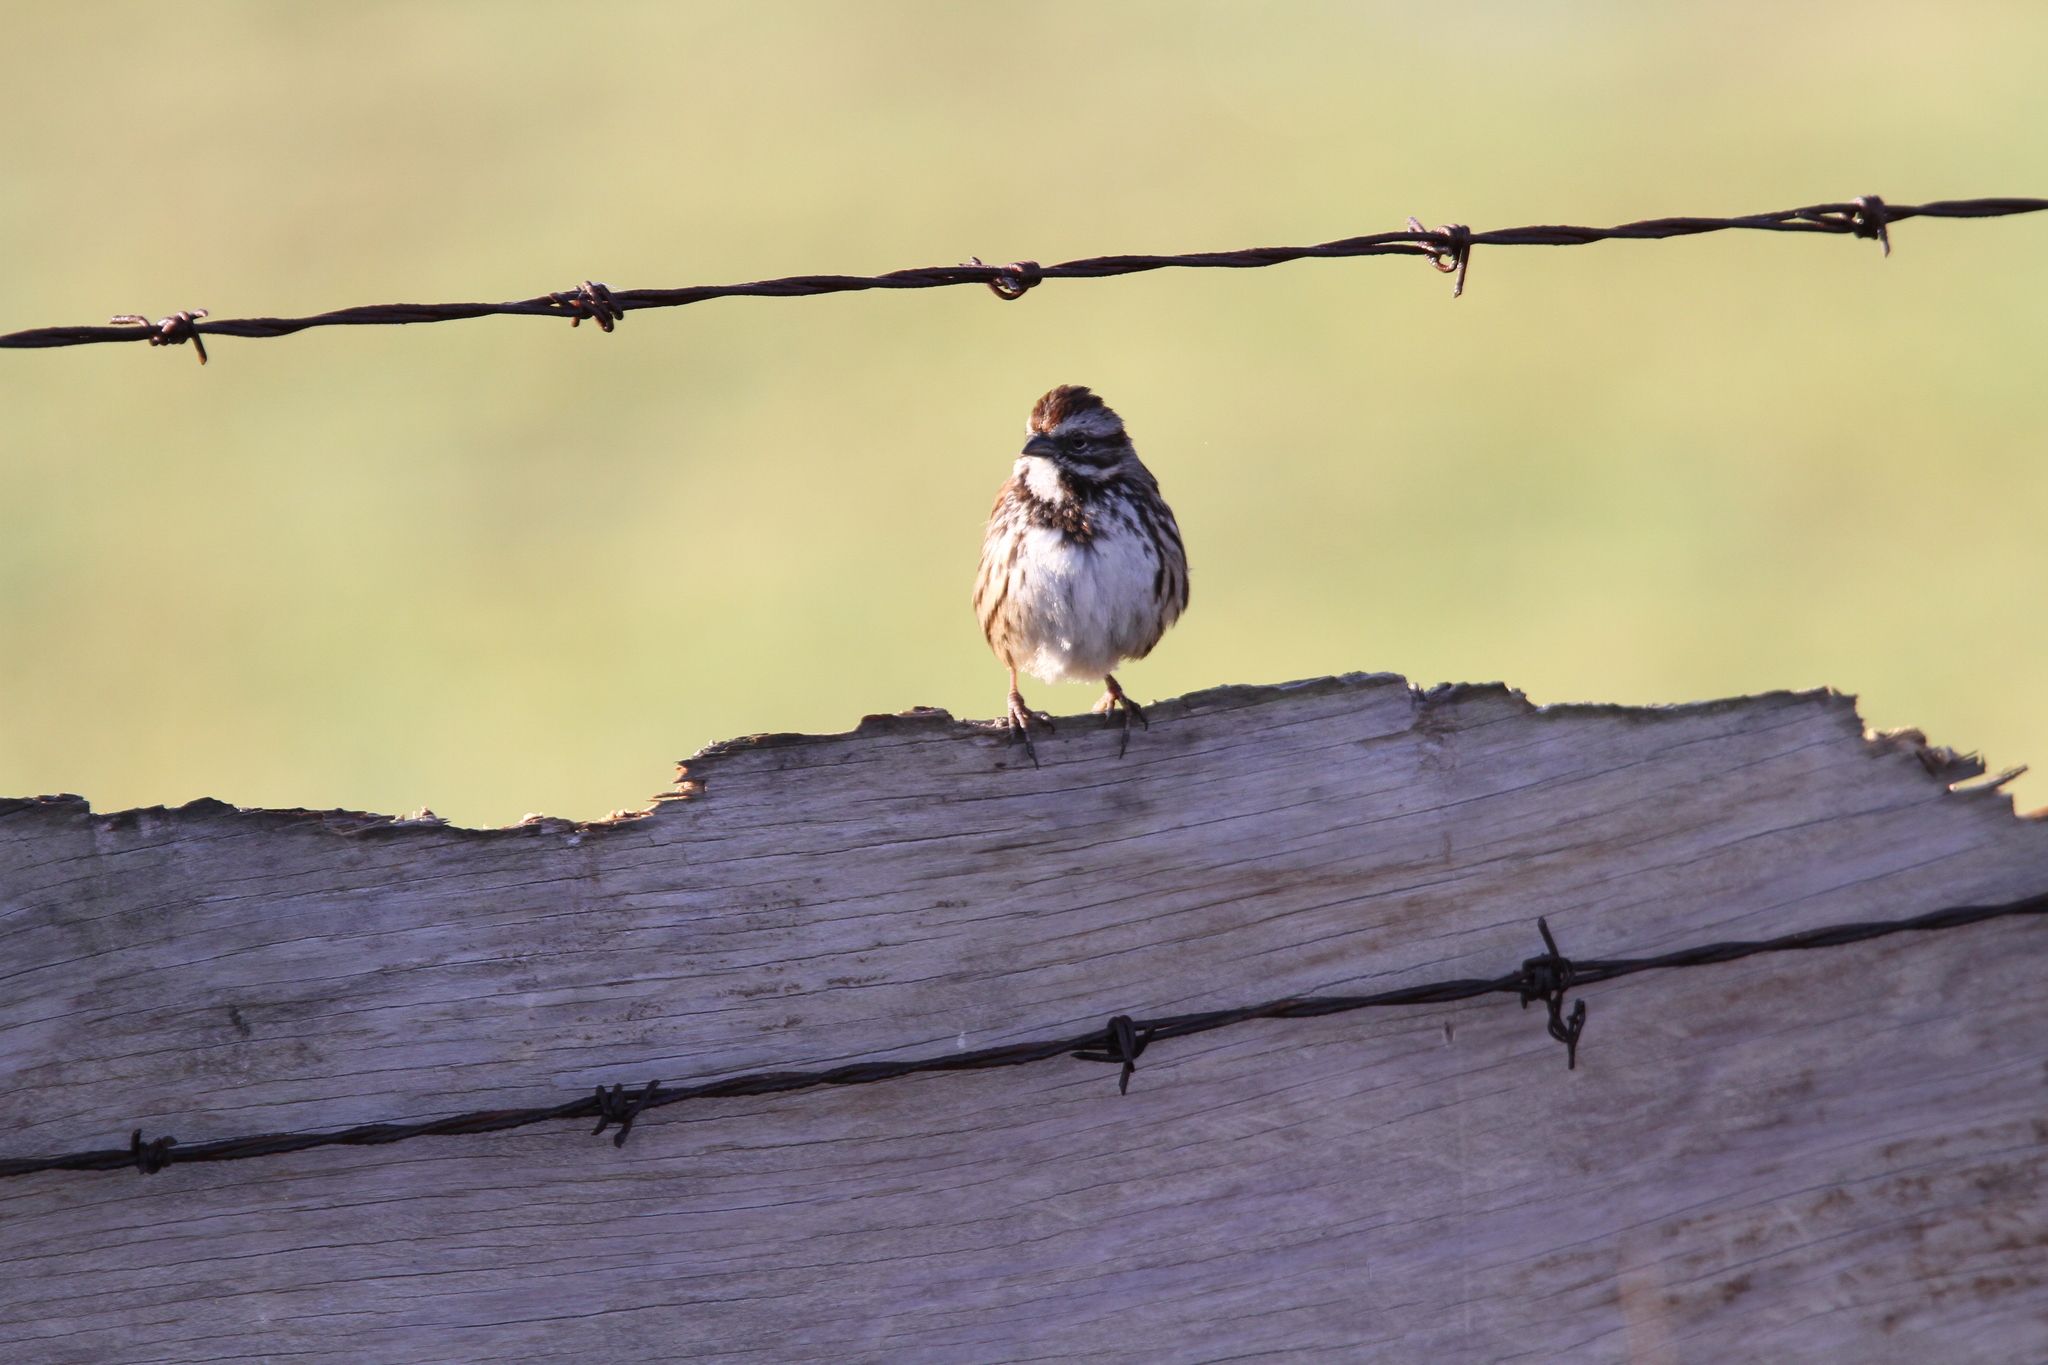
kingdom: Animalia
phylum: Chordata
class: Aves
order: Passeriformes
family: Passerellidae
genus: Melospiza
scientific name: Melospiza melodia
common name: Song sparrow
